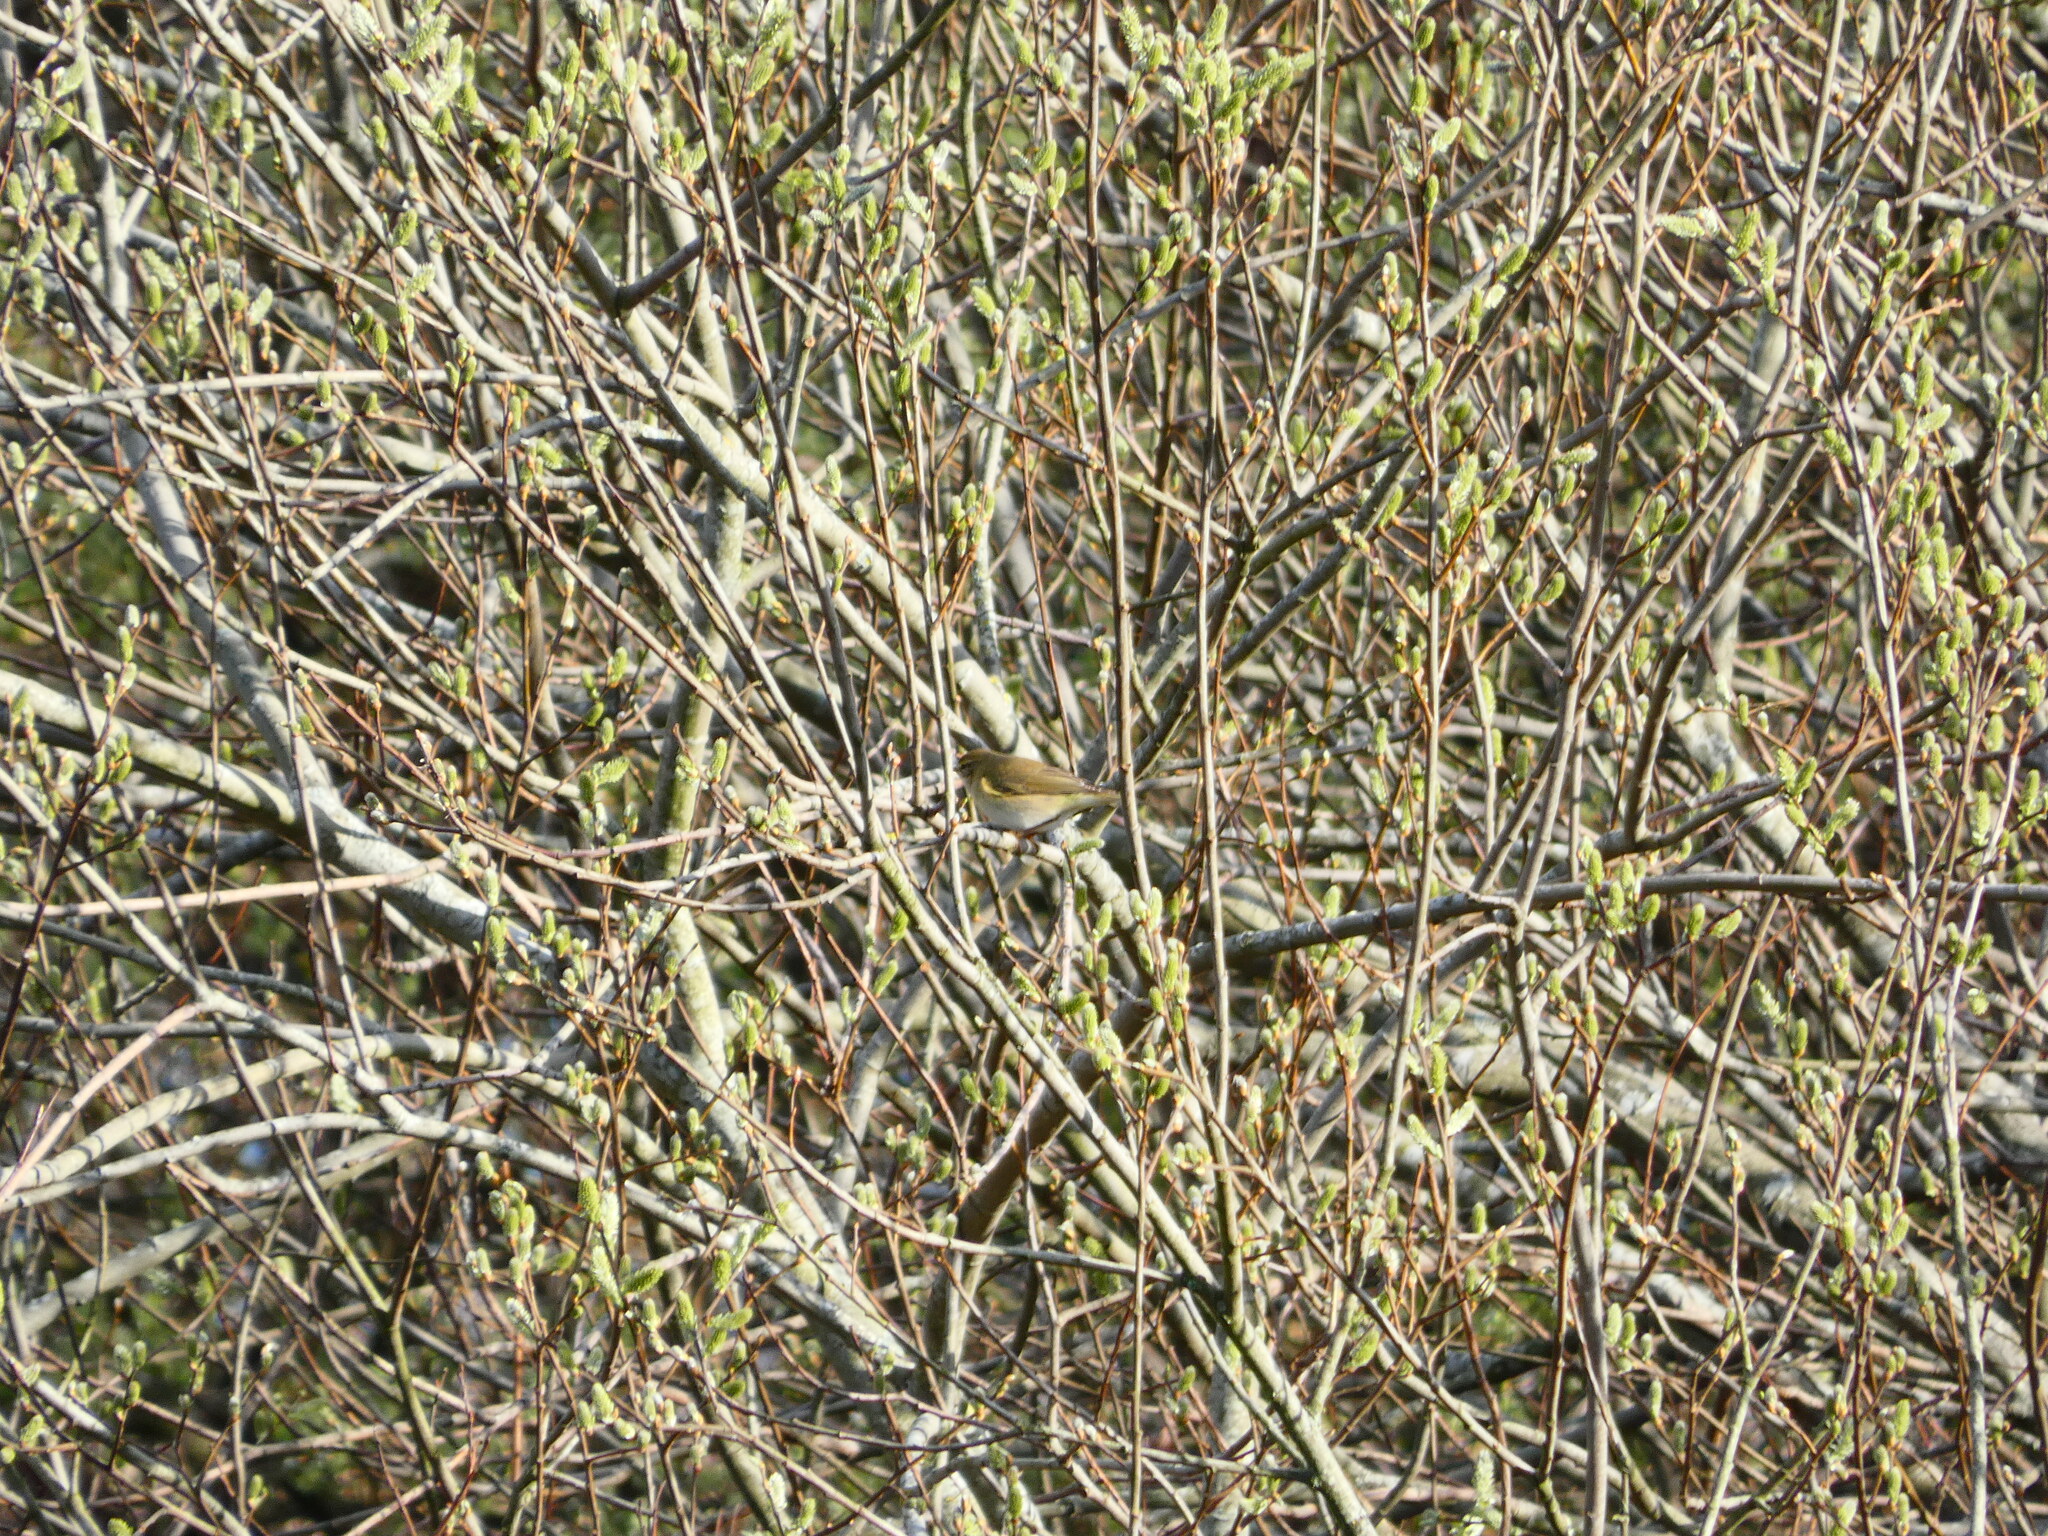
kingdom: Animalia
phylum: Chordata
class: Aves
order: Passeriformes
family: Phylloscopidae
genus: Phylloscopus
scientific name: Phylloscopus collybita
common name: Common chiffchaff
